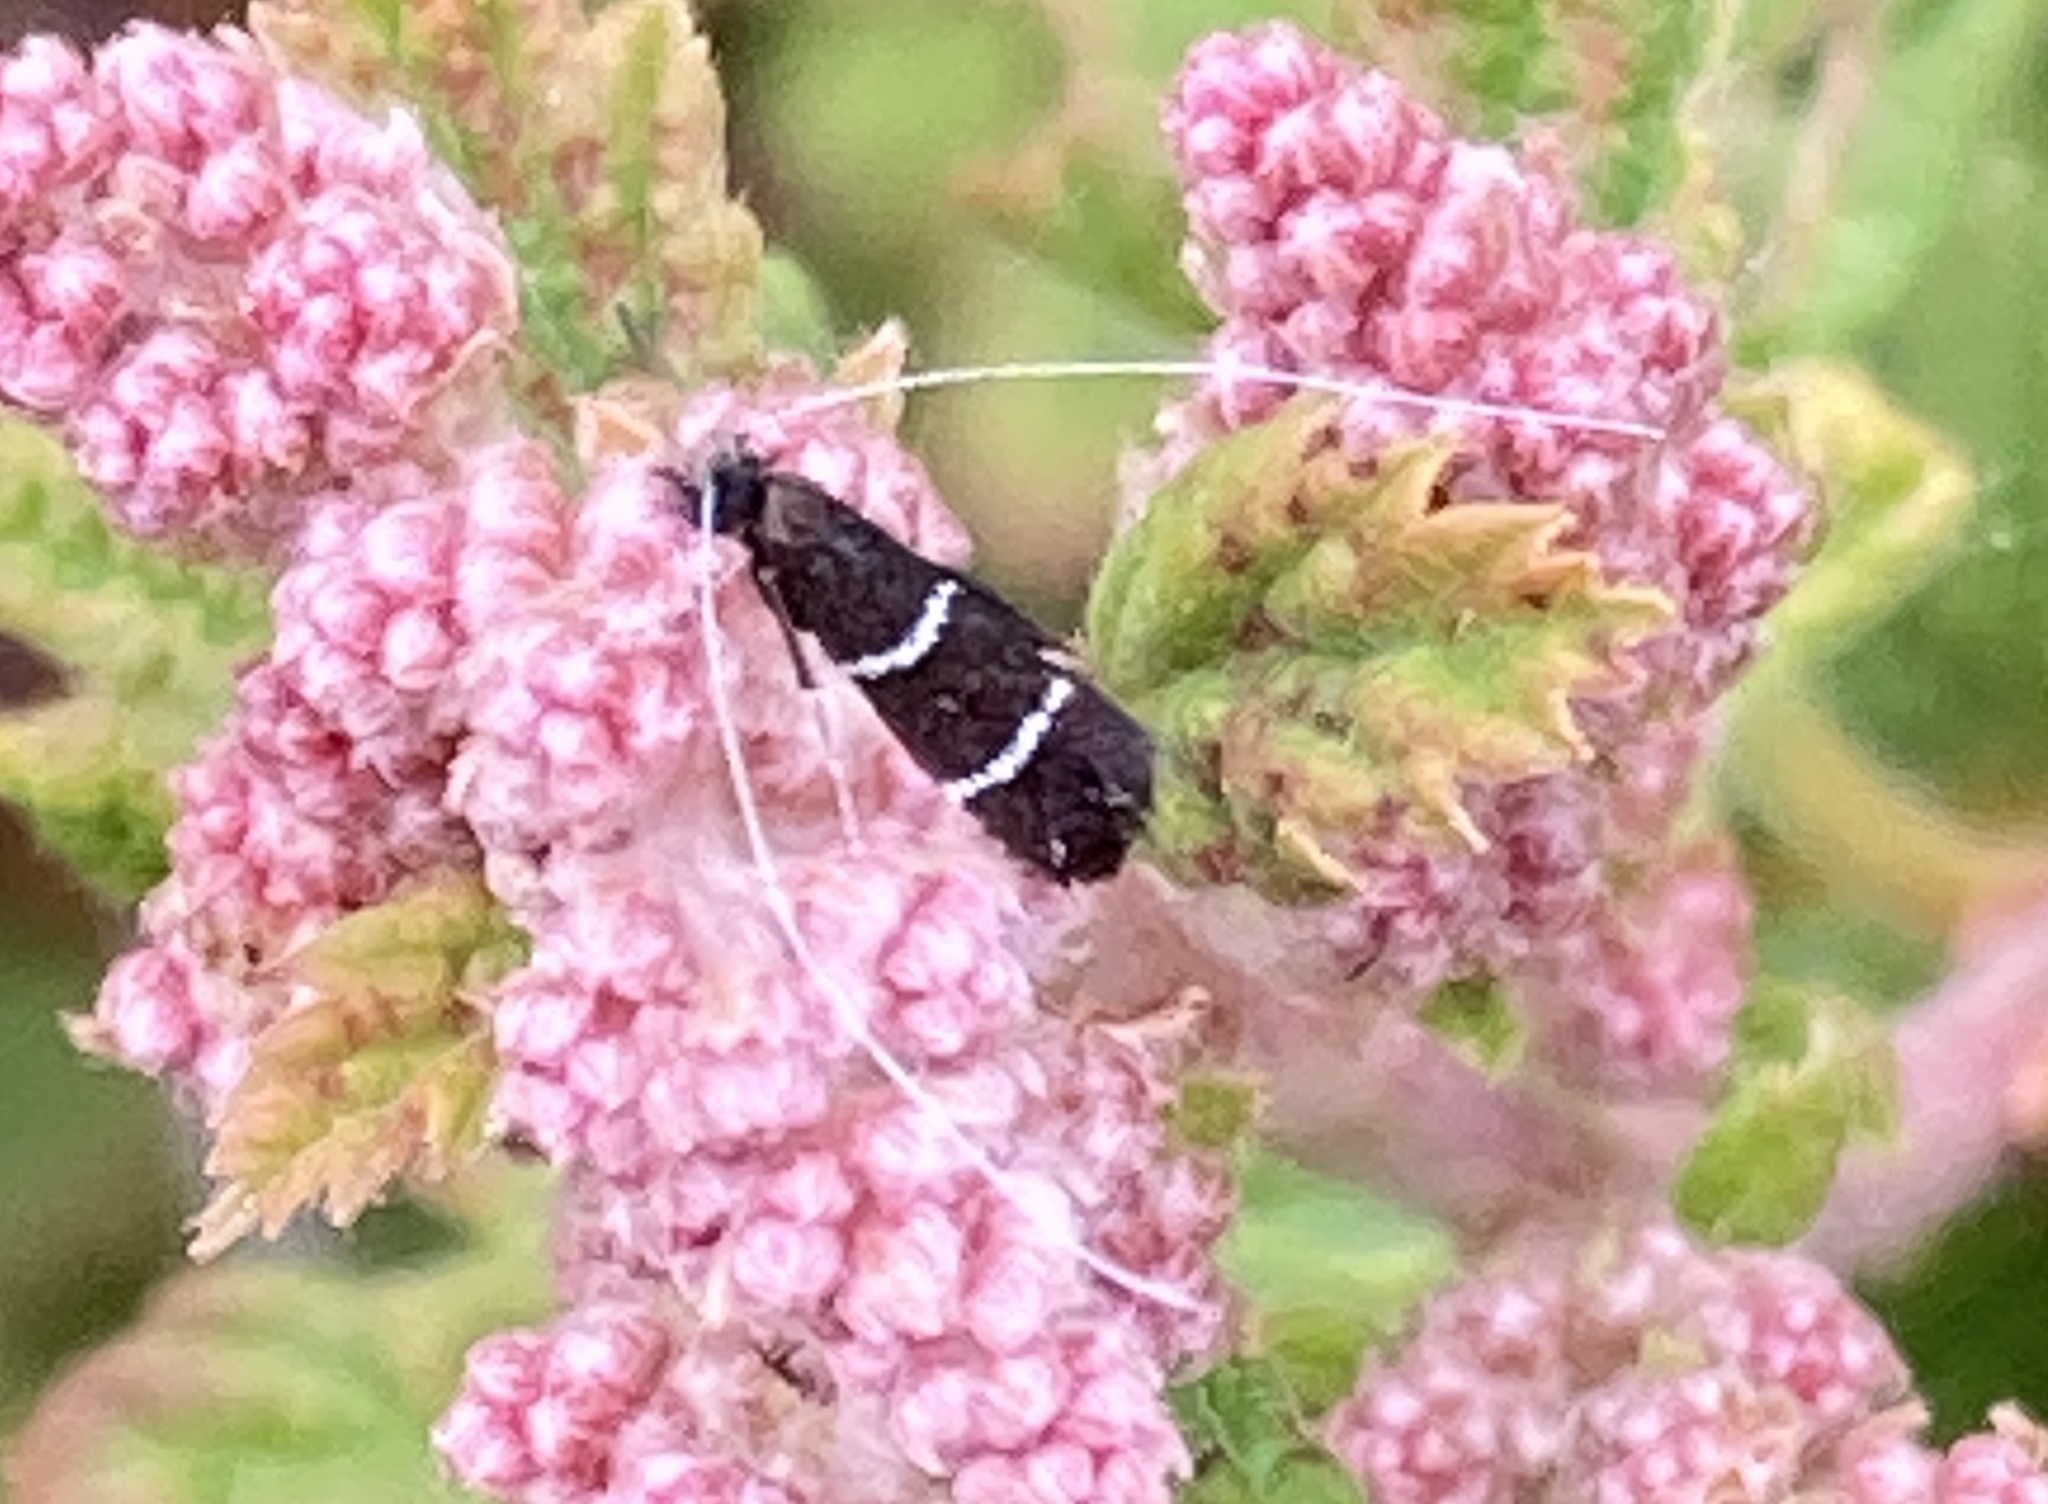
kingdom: Animalia
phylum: Arthropoda
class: Insecta
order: Lepidoptera
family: Adelidae
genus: Adela
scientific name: Adela septentrionella
